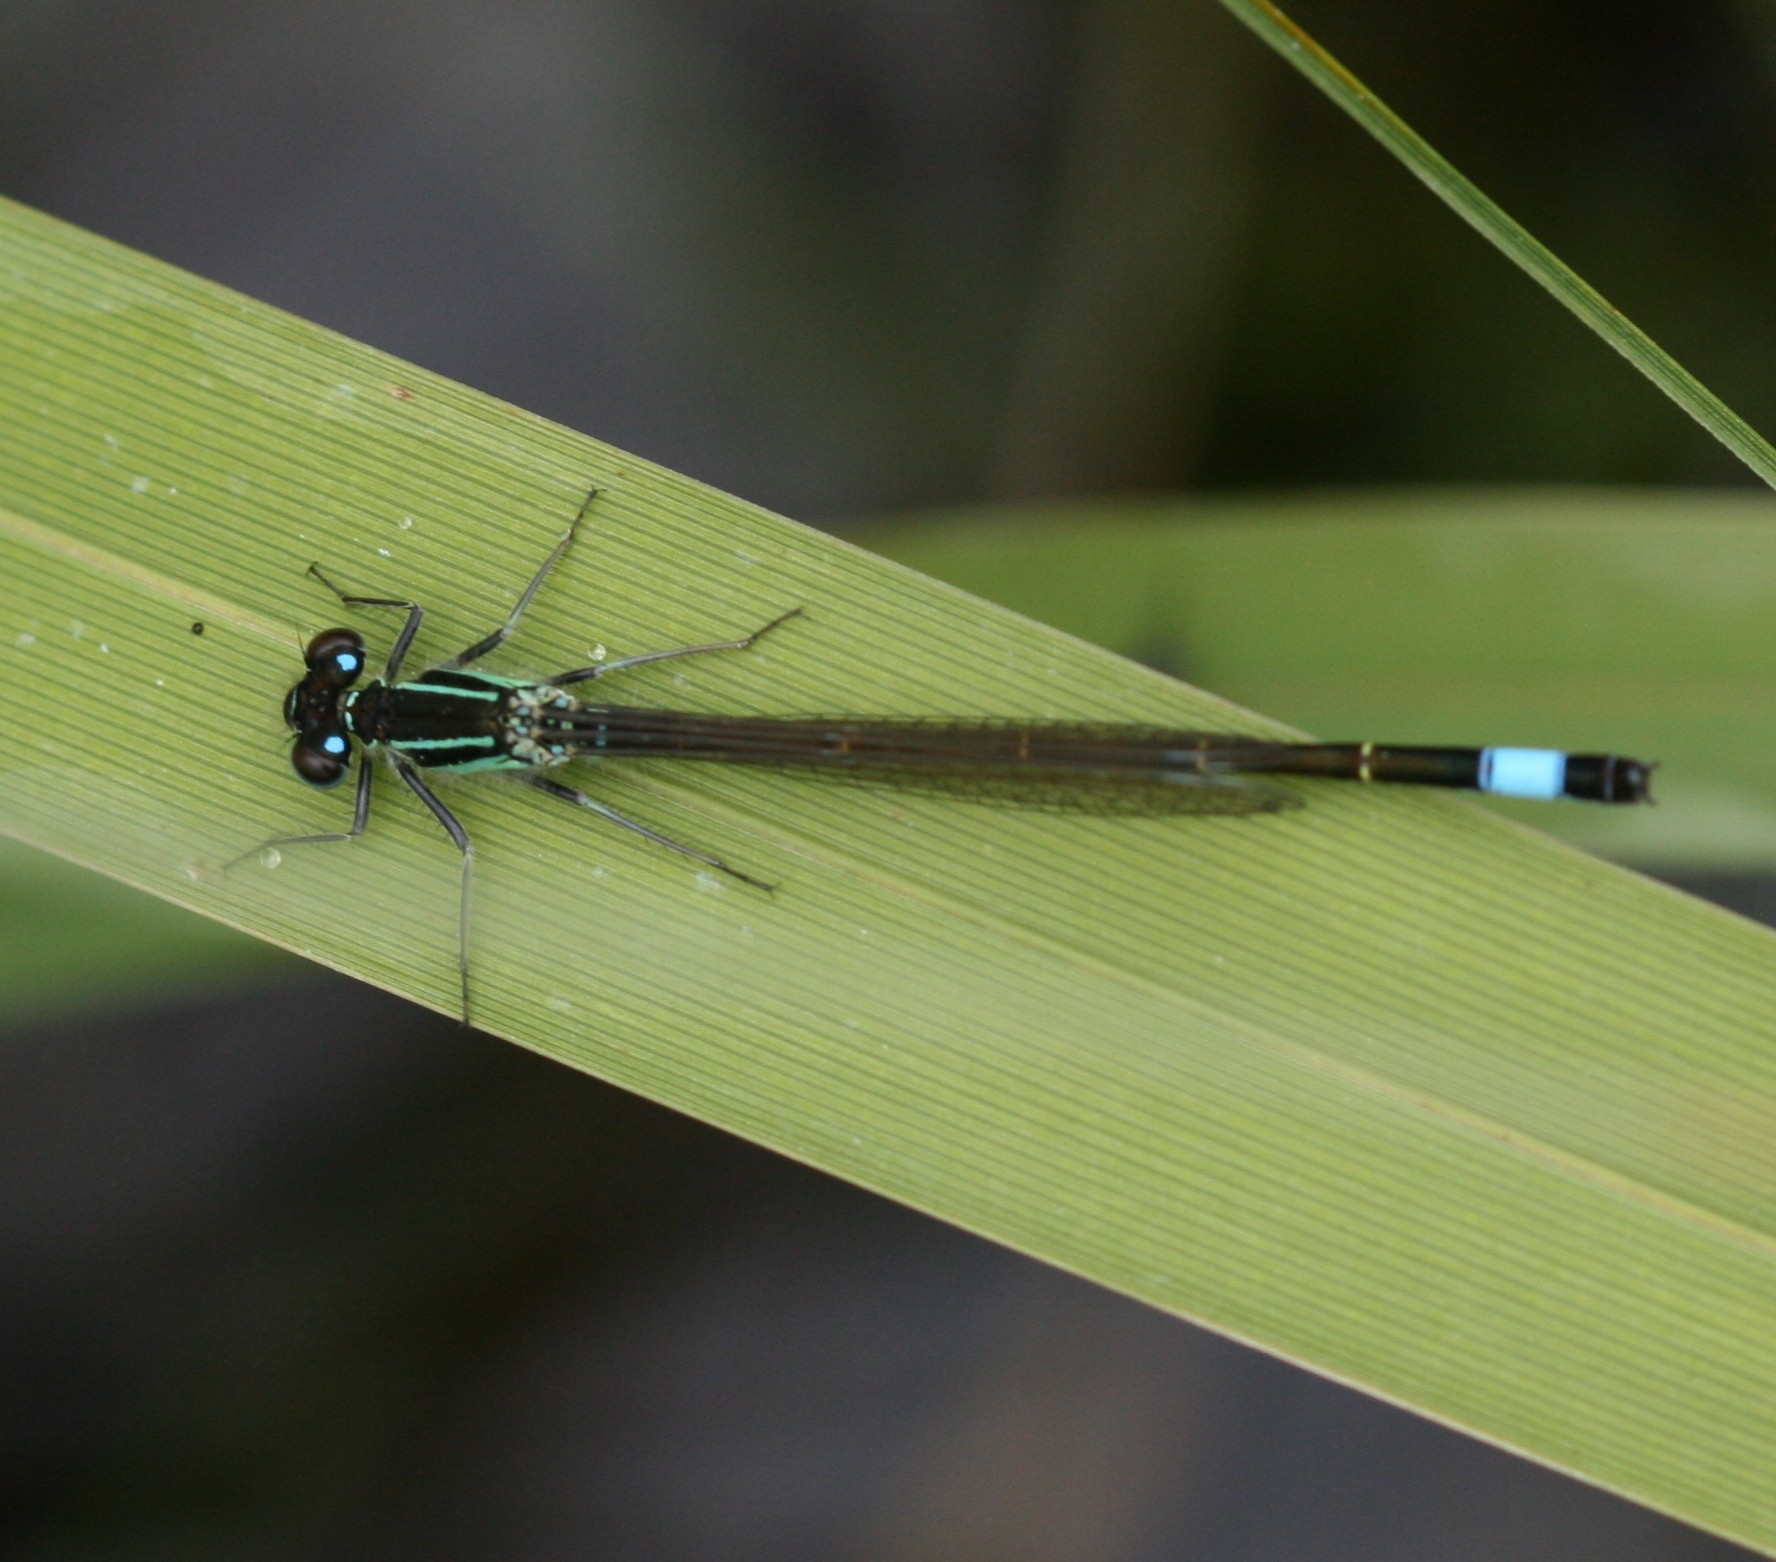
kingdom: Animalia
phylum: Arthropoda
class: Insecta
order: Odonata
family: Coenagrionidae
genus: Ischnura
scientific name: Ischnura elegans
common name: Blue-tailed damselfly
